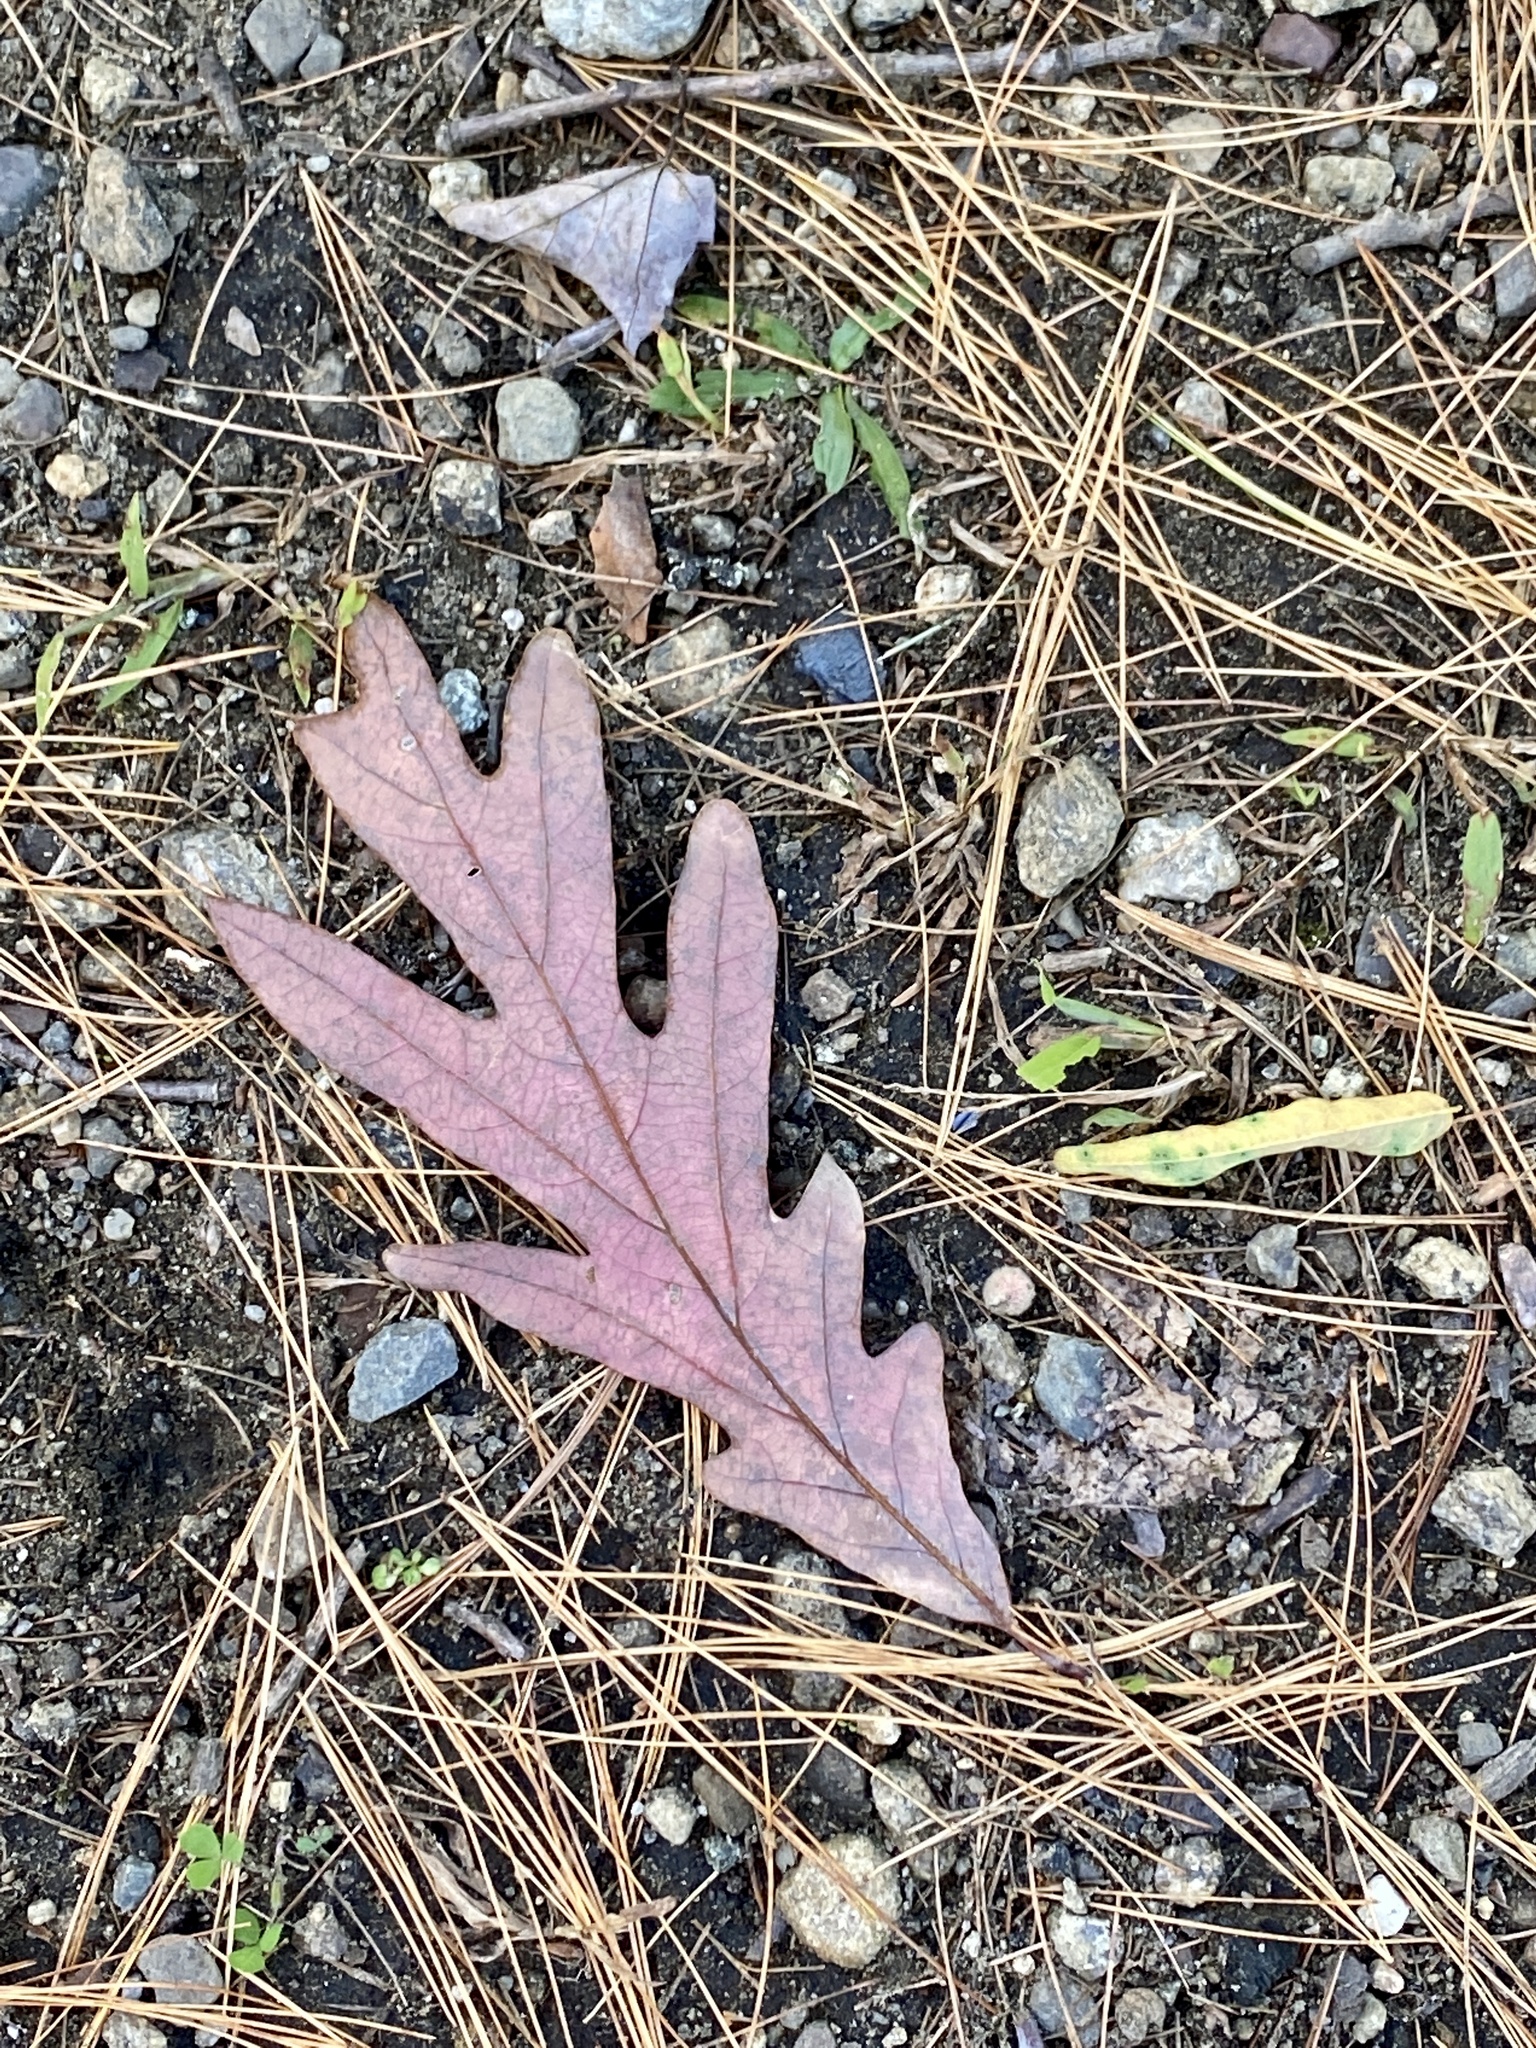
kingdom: Plantae
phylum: Tracheophyta
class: Magnoliopsida
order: Fagales
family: Fagaceae
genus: Quercus
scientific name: Quercus alba
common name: White oak
